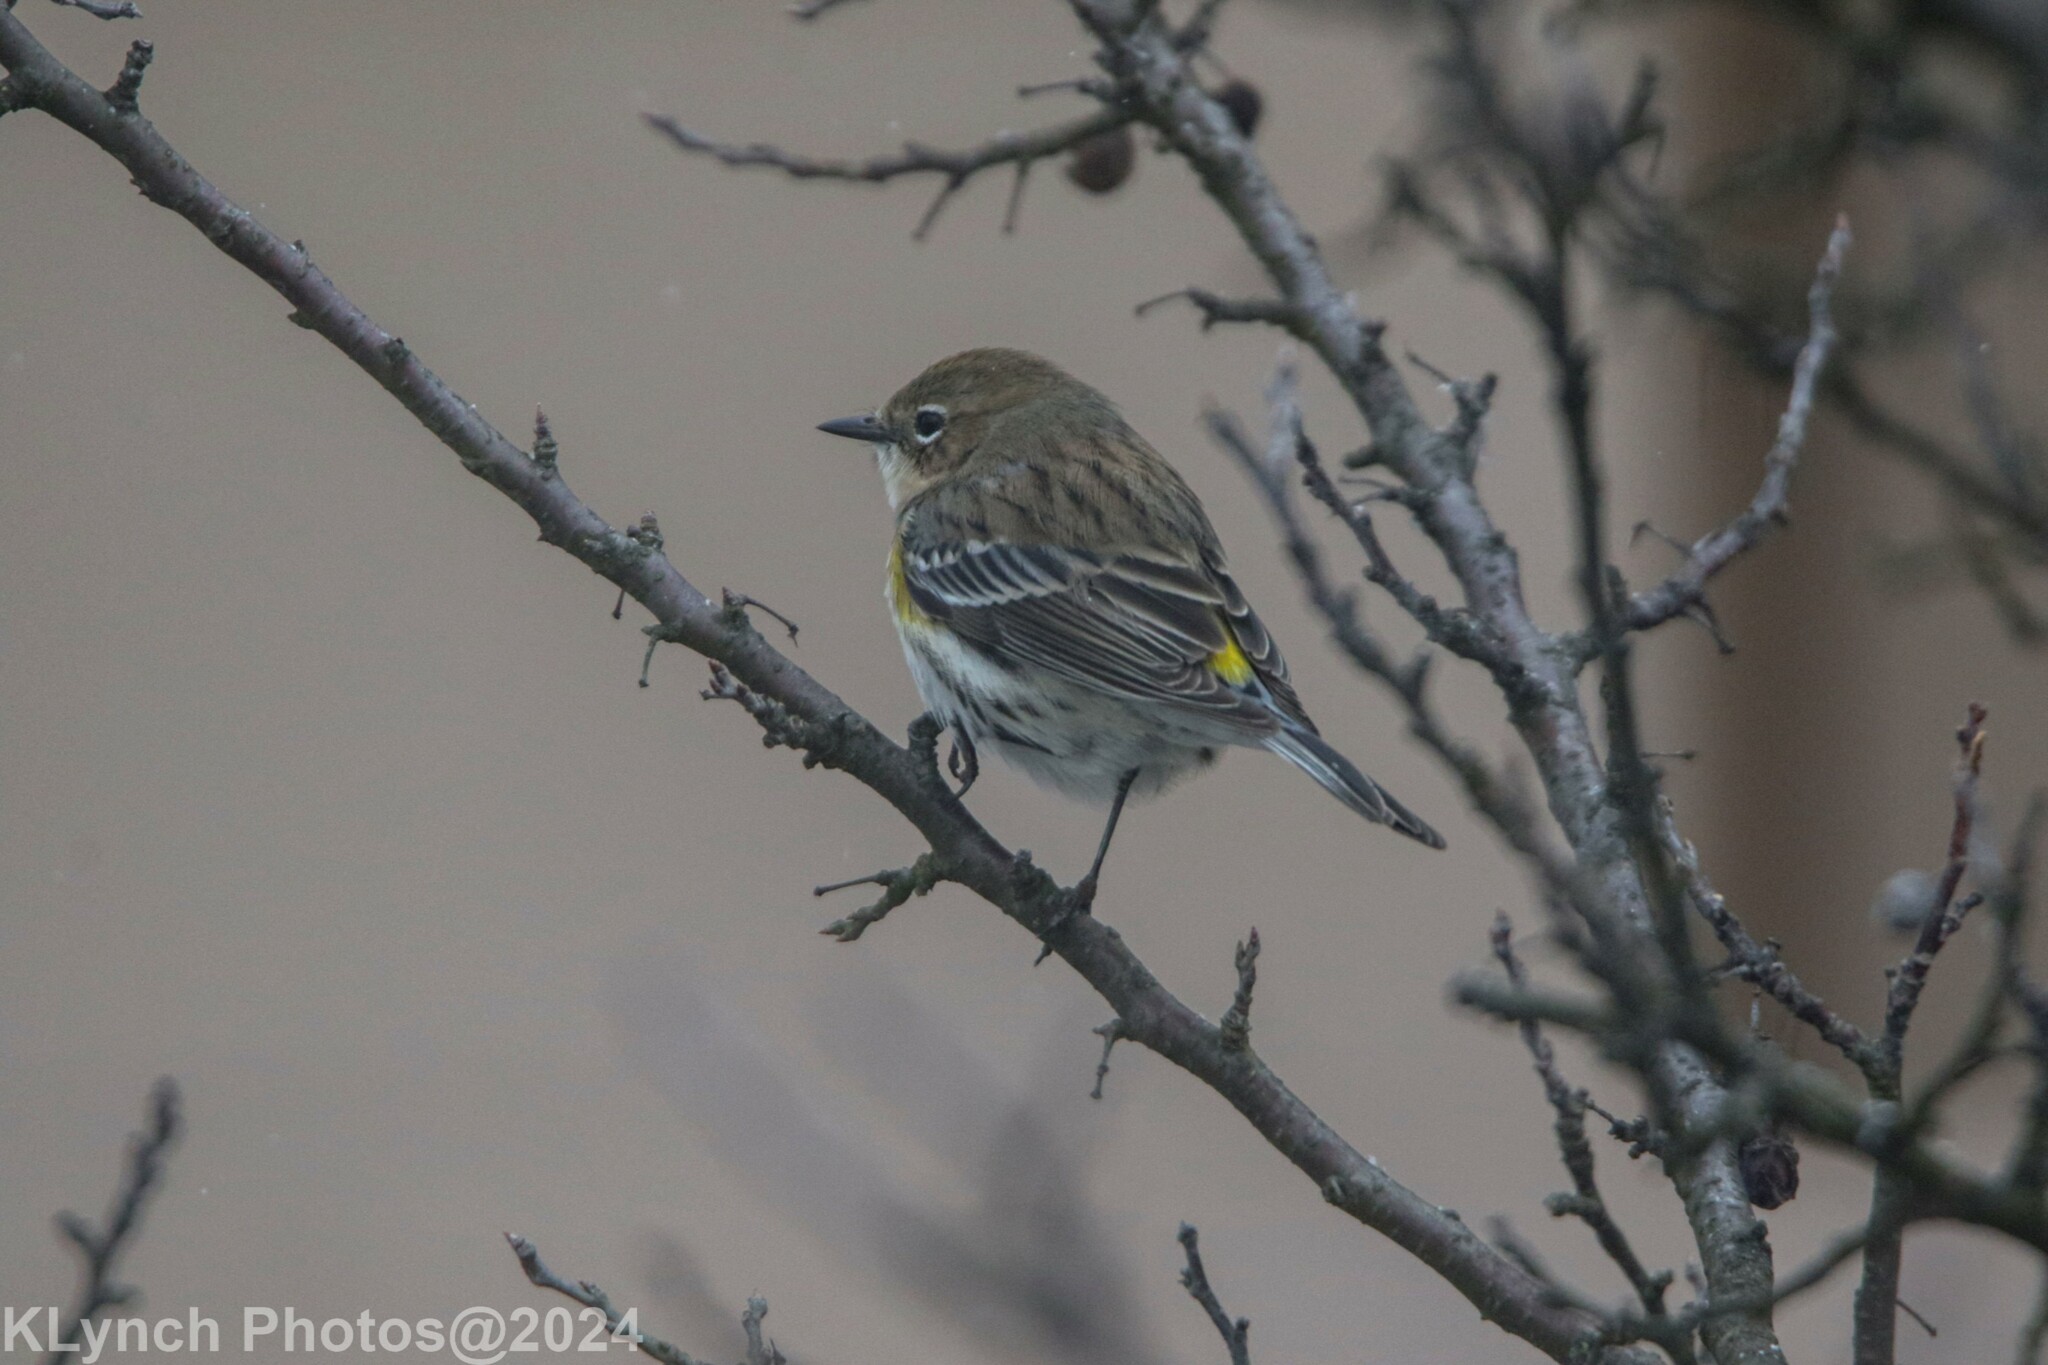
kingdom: Animalia
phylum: Chordata
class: Aves
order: Passeriformes
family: Parulidae
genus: Setophaga
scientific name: Setophaga coronata
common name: Myrtle warbler
